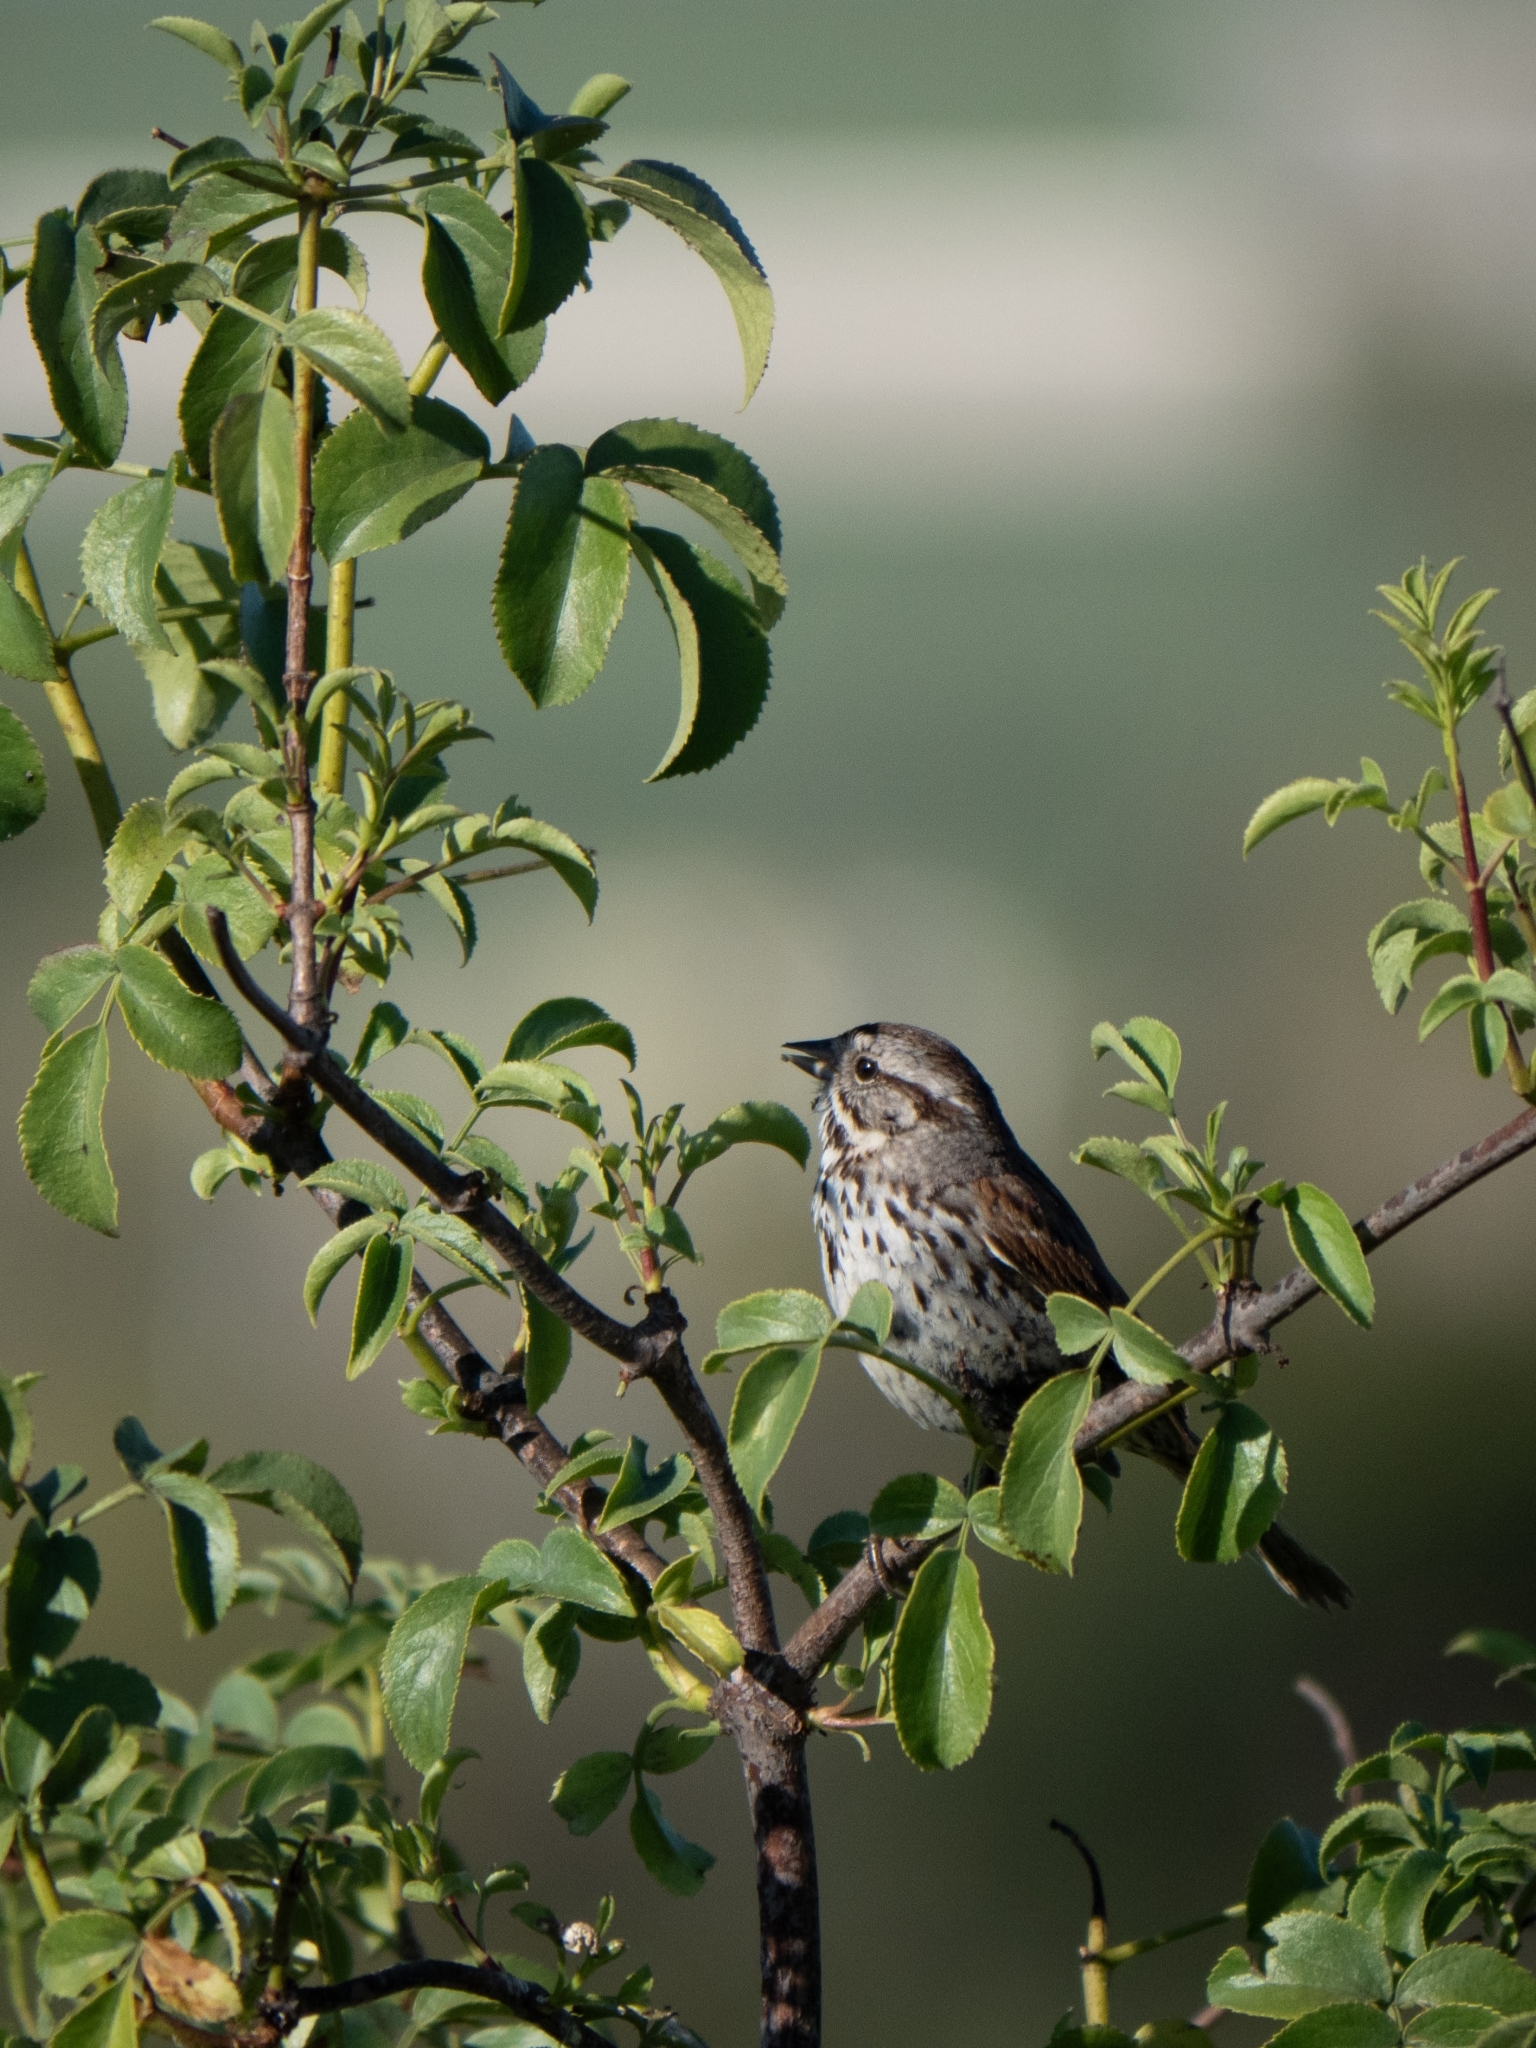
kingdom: Animalia
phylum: Chordata
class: Aves
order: Passeriformes
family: Passerellidae
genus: Melospiza
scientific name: Melospiza melodia
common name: Song sparrow
